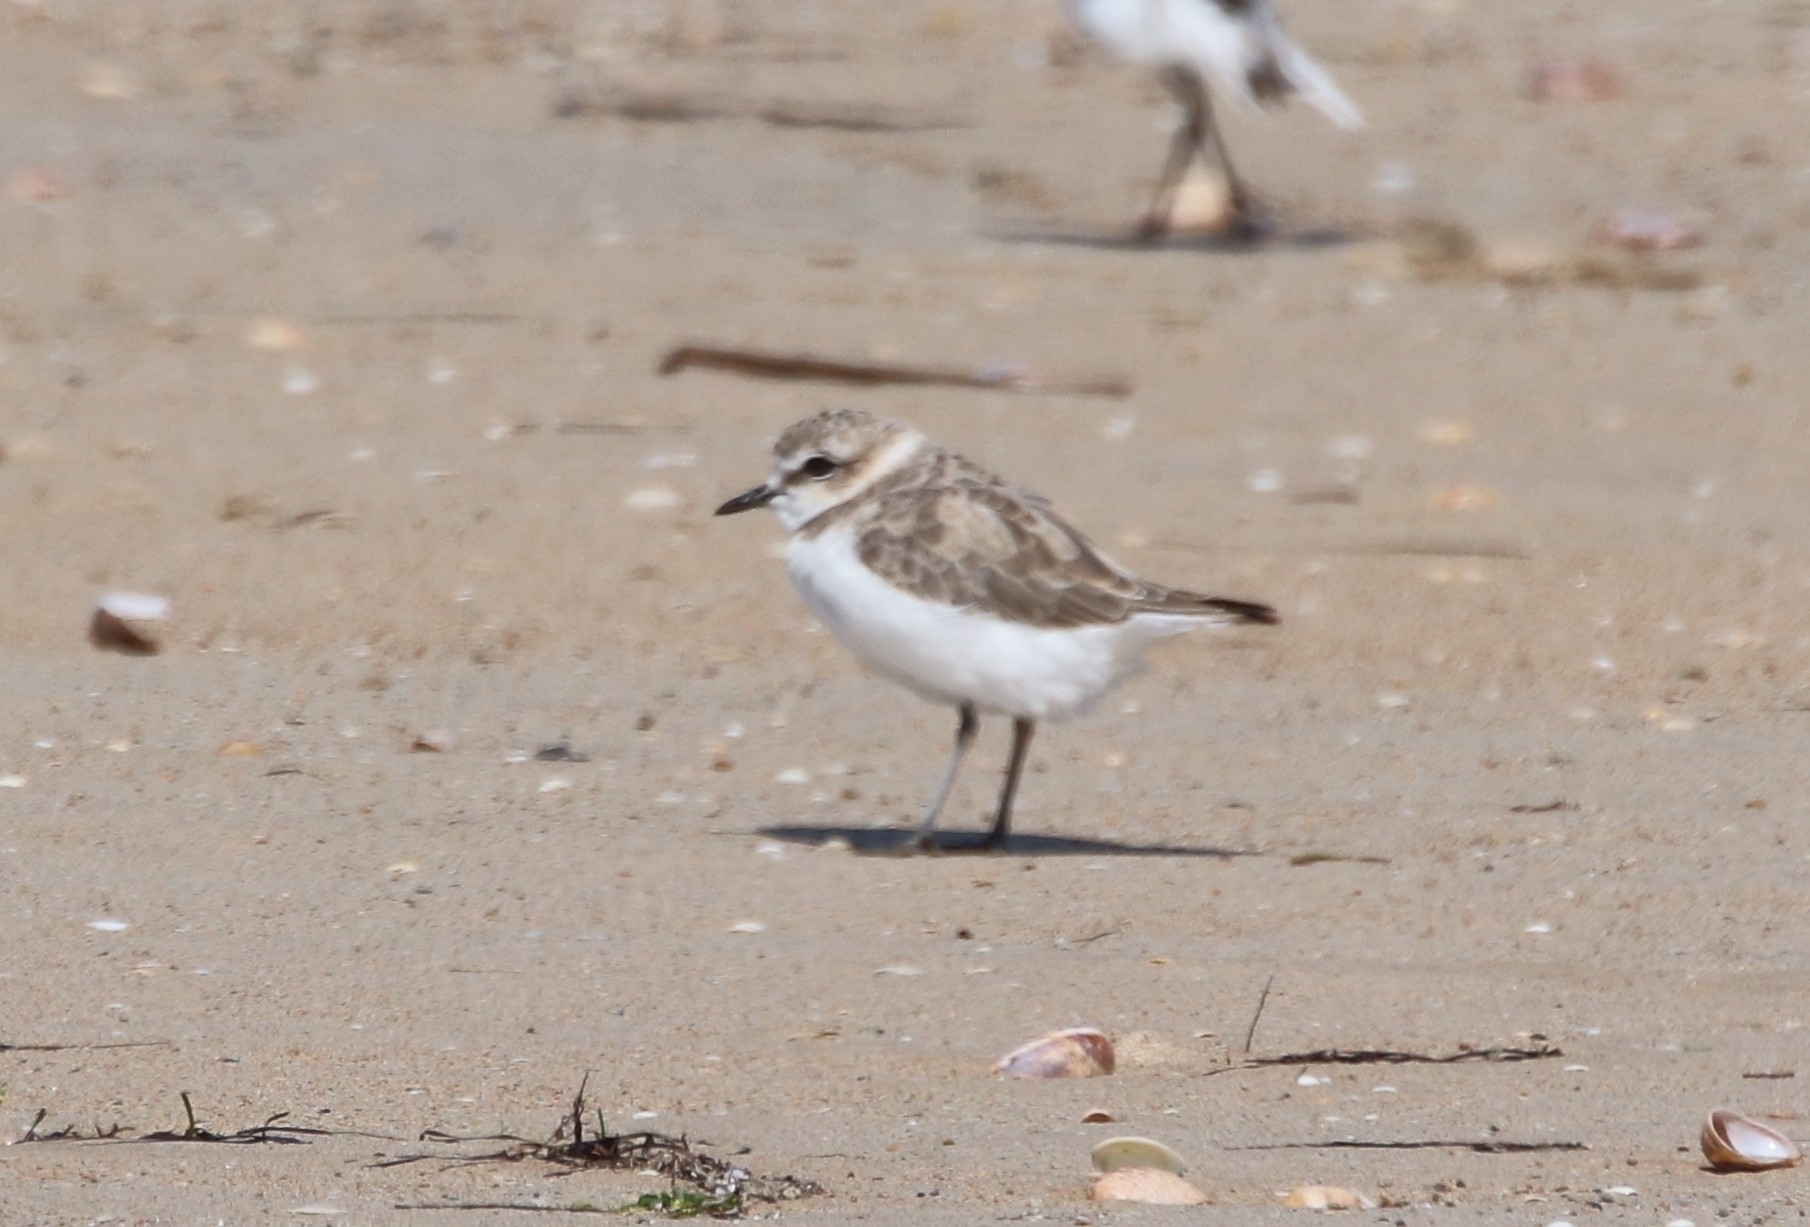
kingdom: Animalia
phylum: Chordata
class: Aves
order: Charadriiformes
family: Charadriidae
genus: Charadrius
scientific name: Charadrius alexandrinus
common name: Kentish plover
